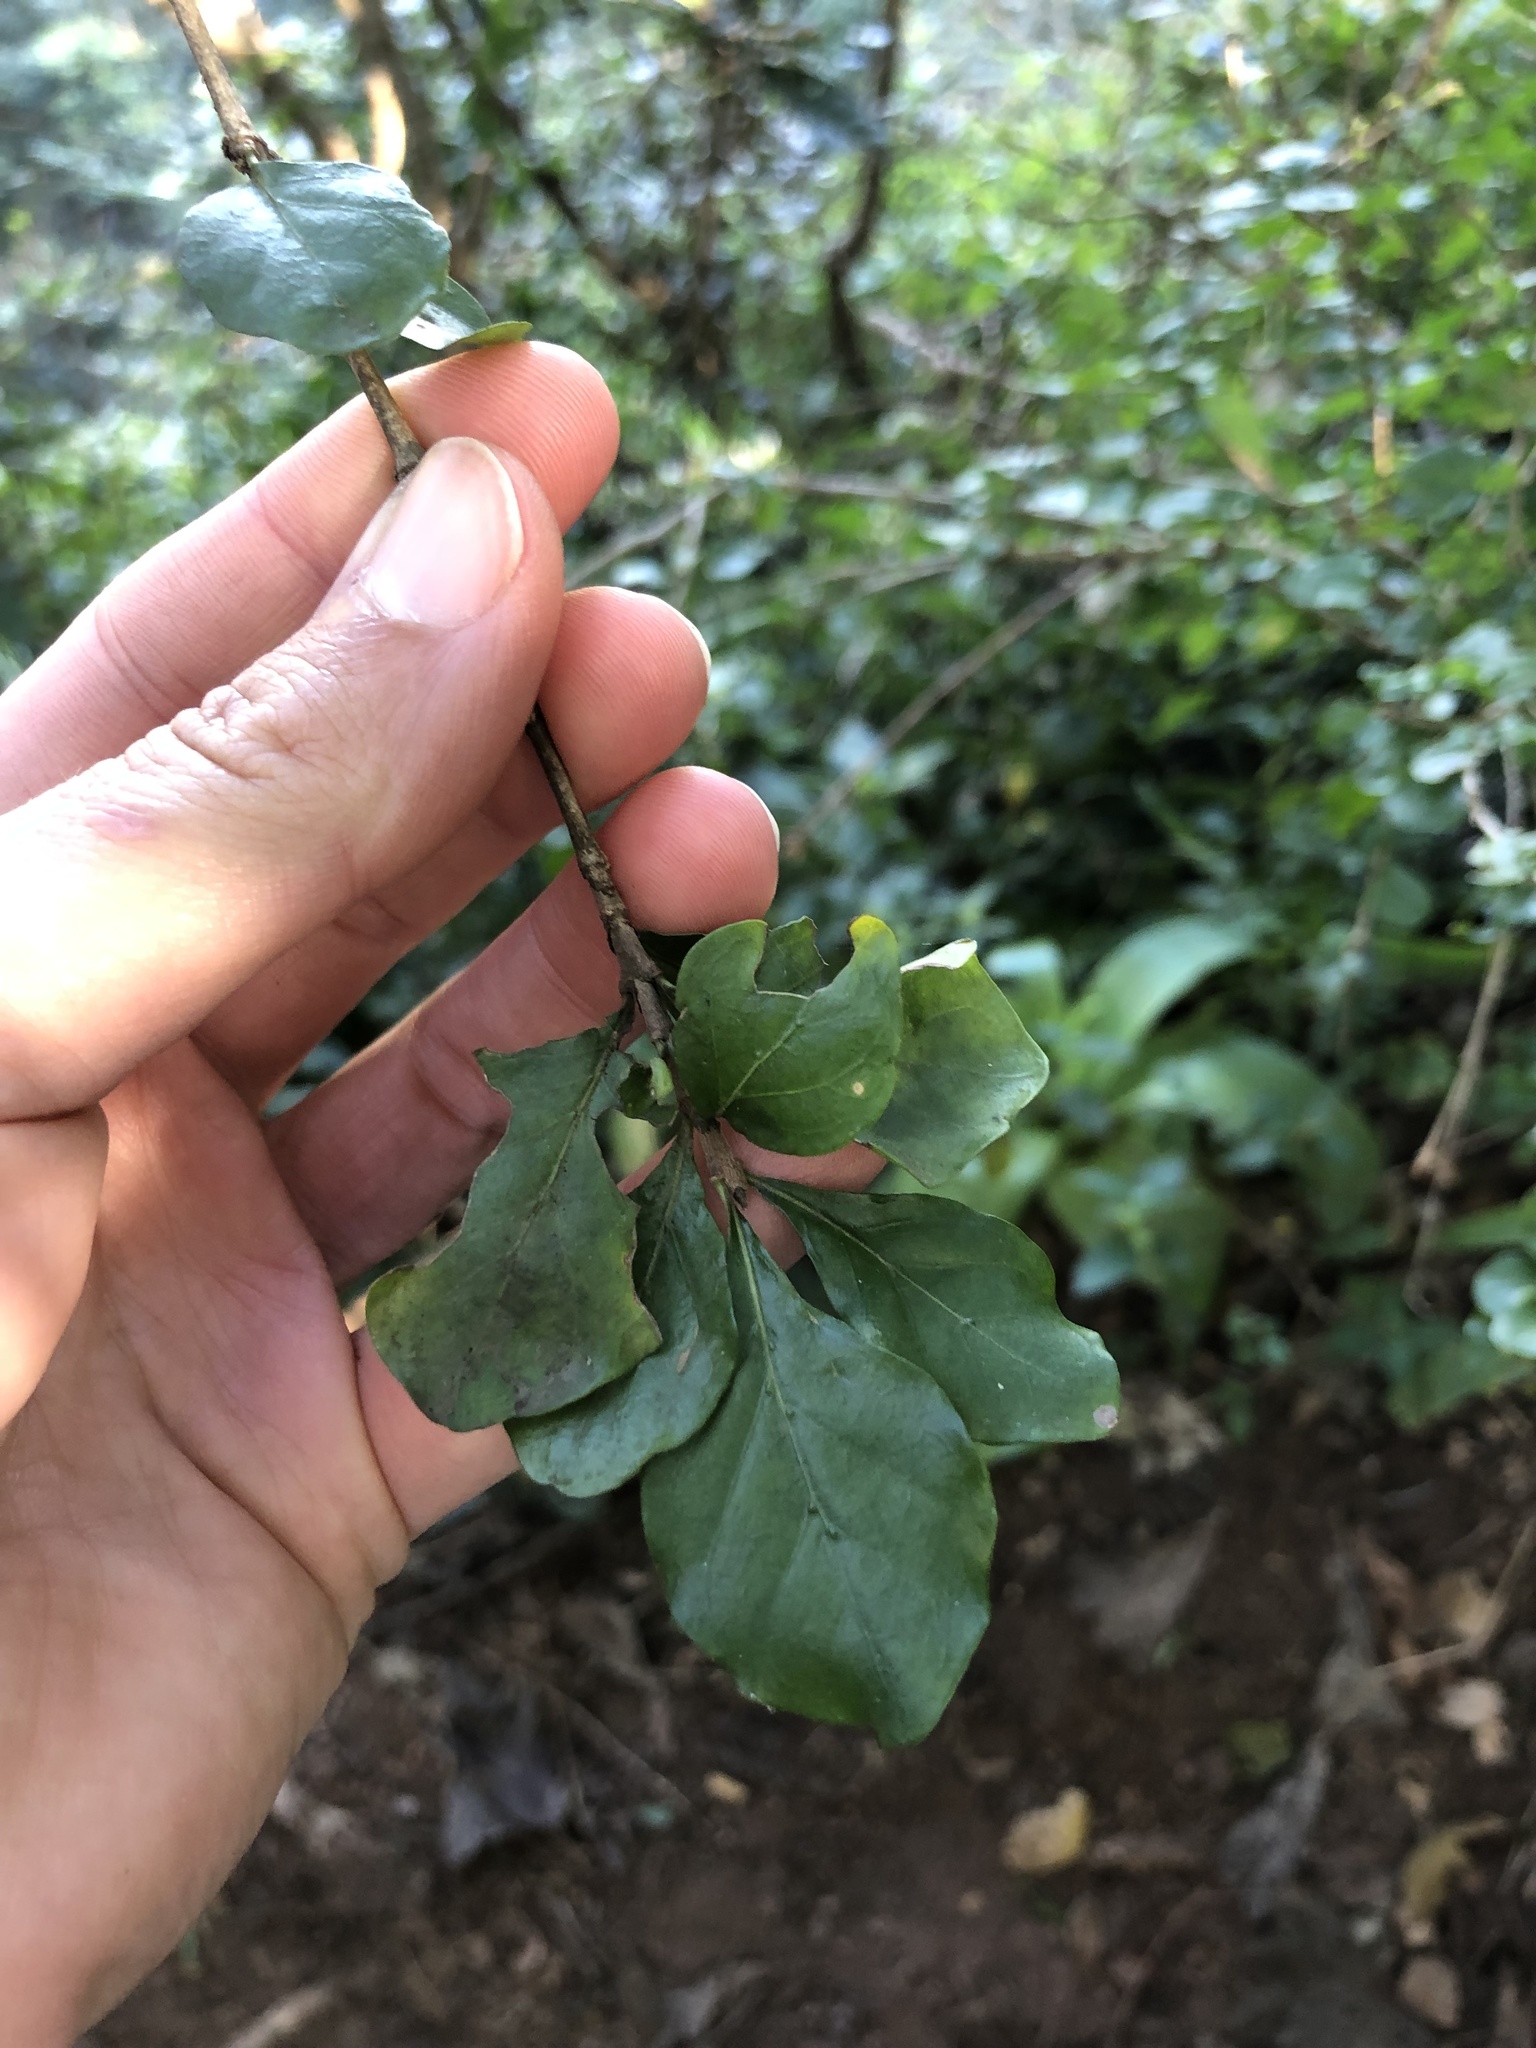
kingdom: Plantae
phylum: Tracheophyta
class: Magnoliopsida
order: Gentianales
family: Rubiaceae
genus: Coddia
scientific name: Coddia rudis
